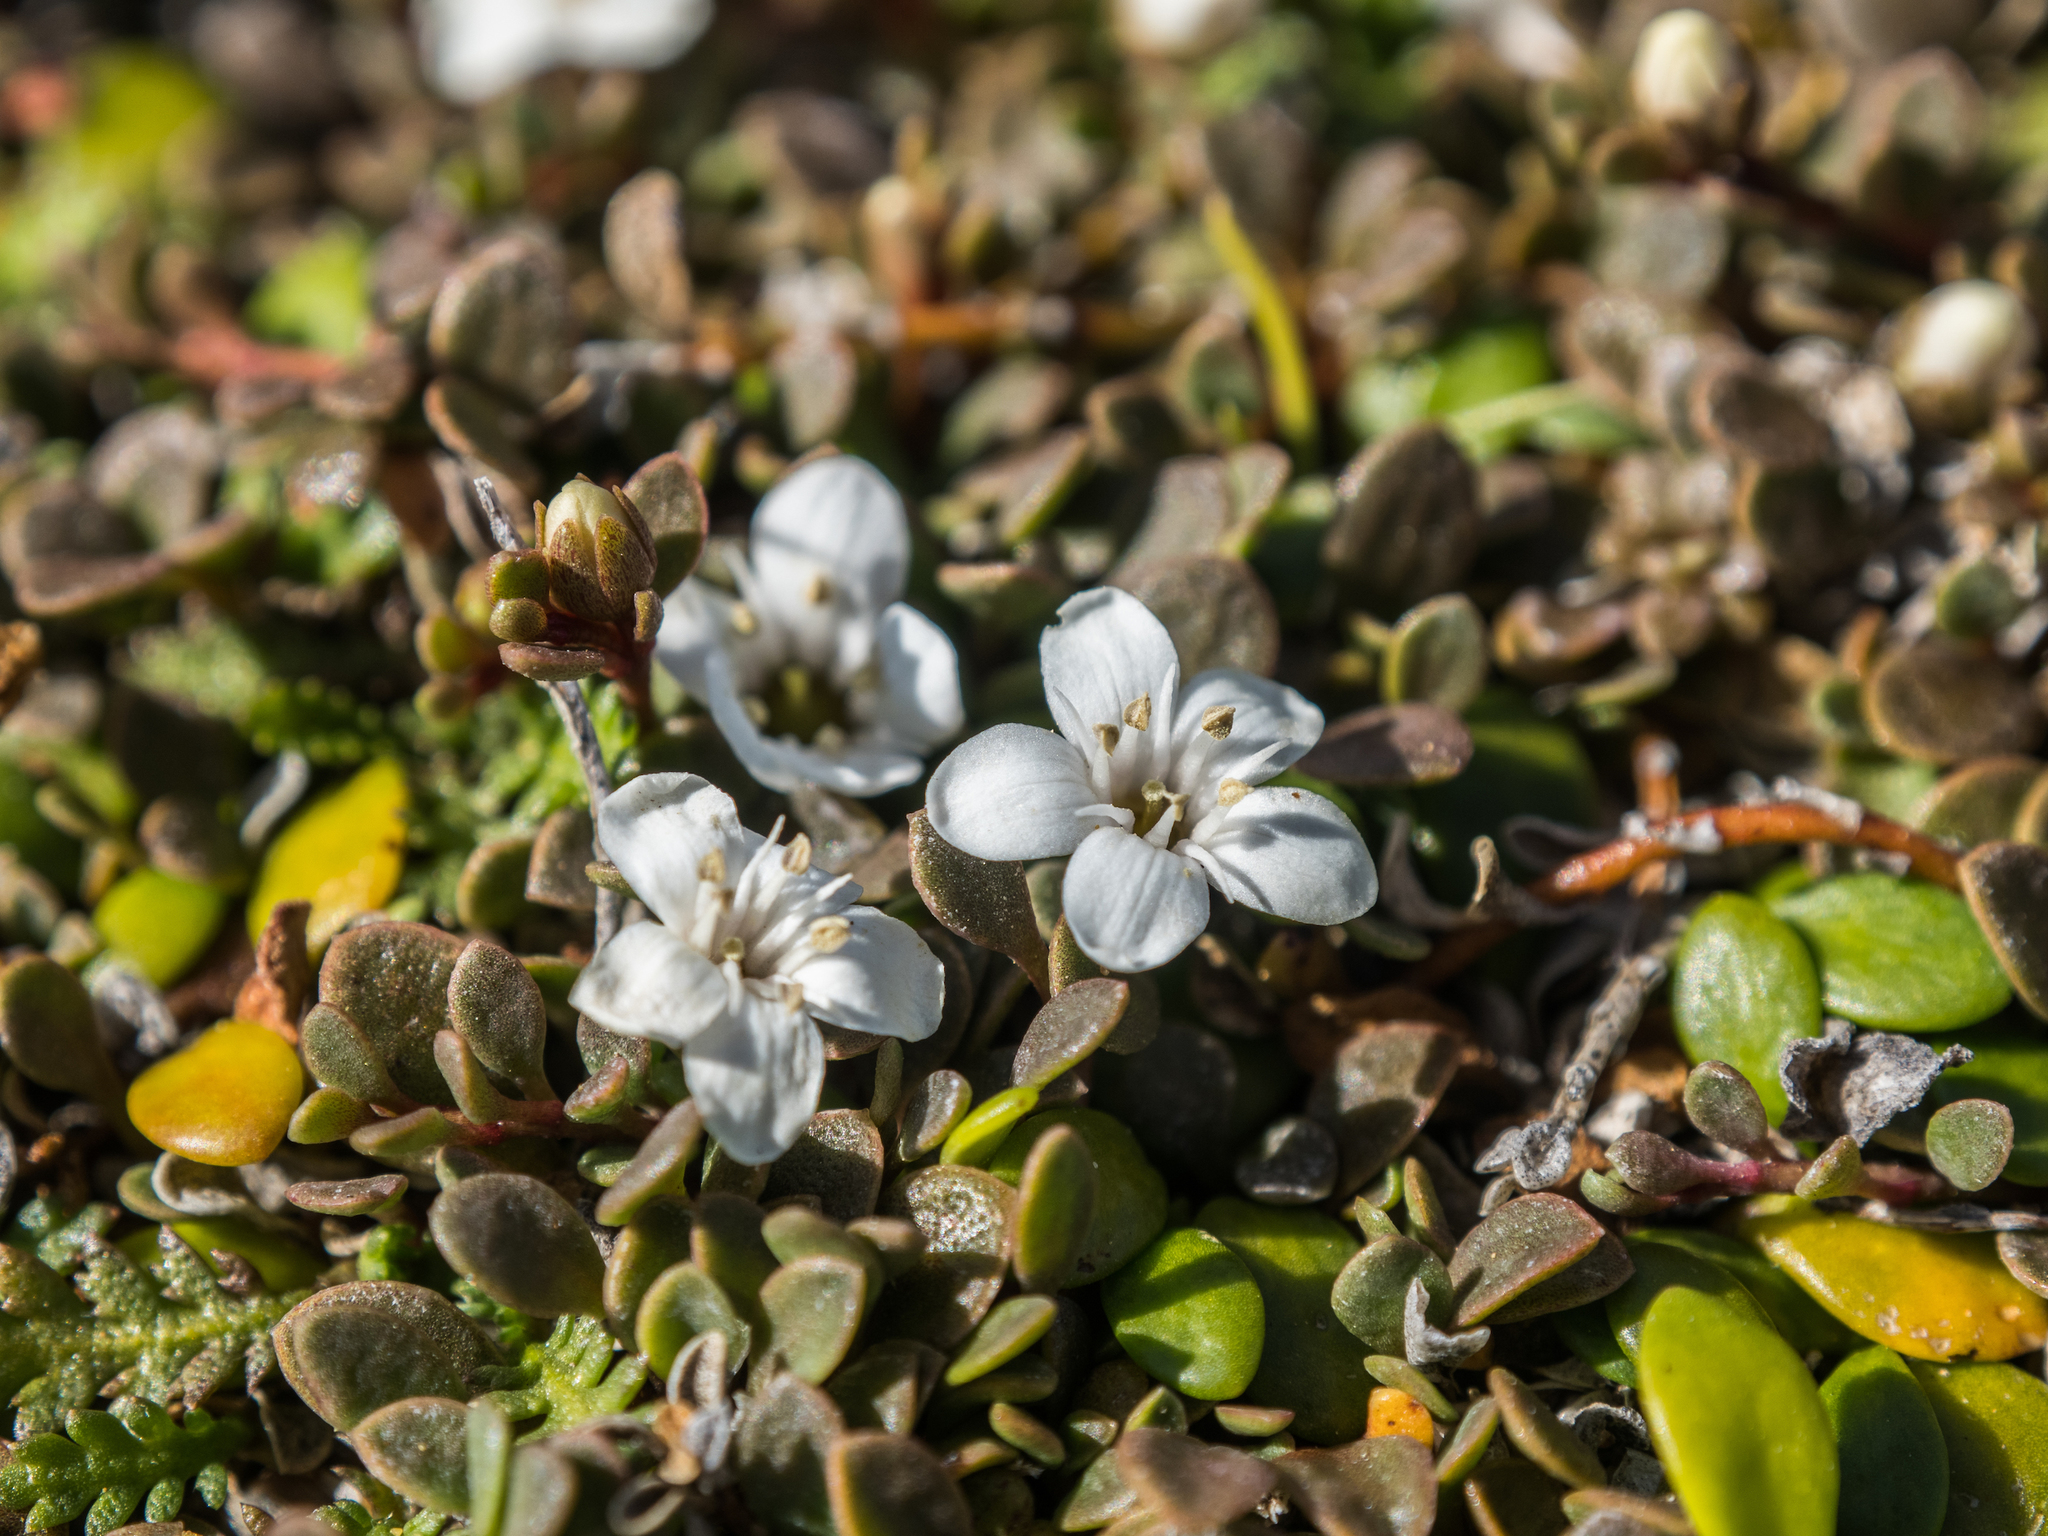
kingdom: Plantae
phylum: Tracheophyta
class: Magnoliopsida
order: Ericales
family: Primulaceae
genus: Samolus
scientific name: Samolus repens
